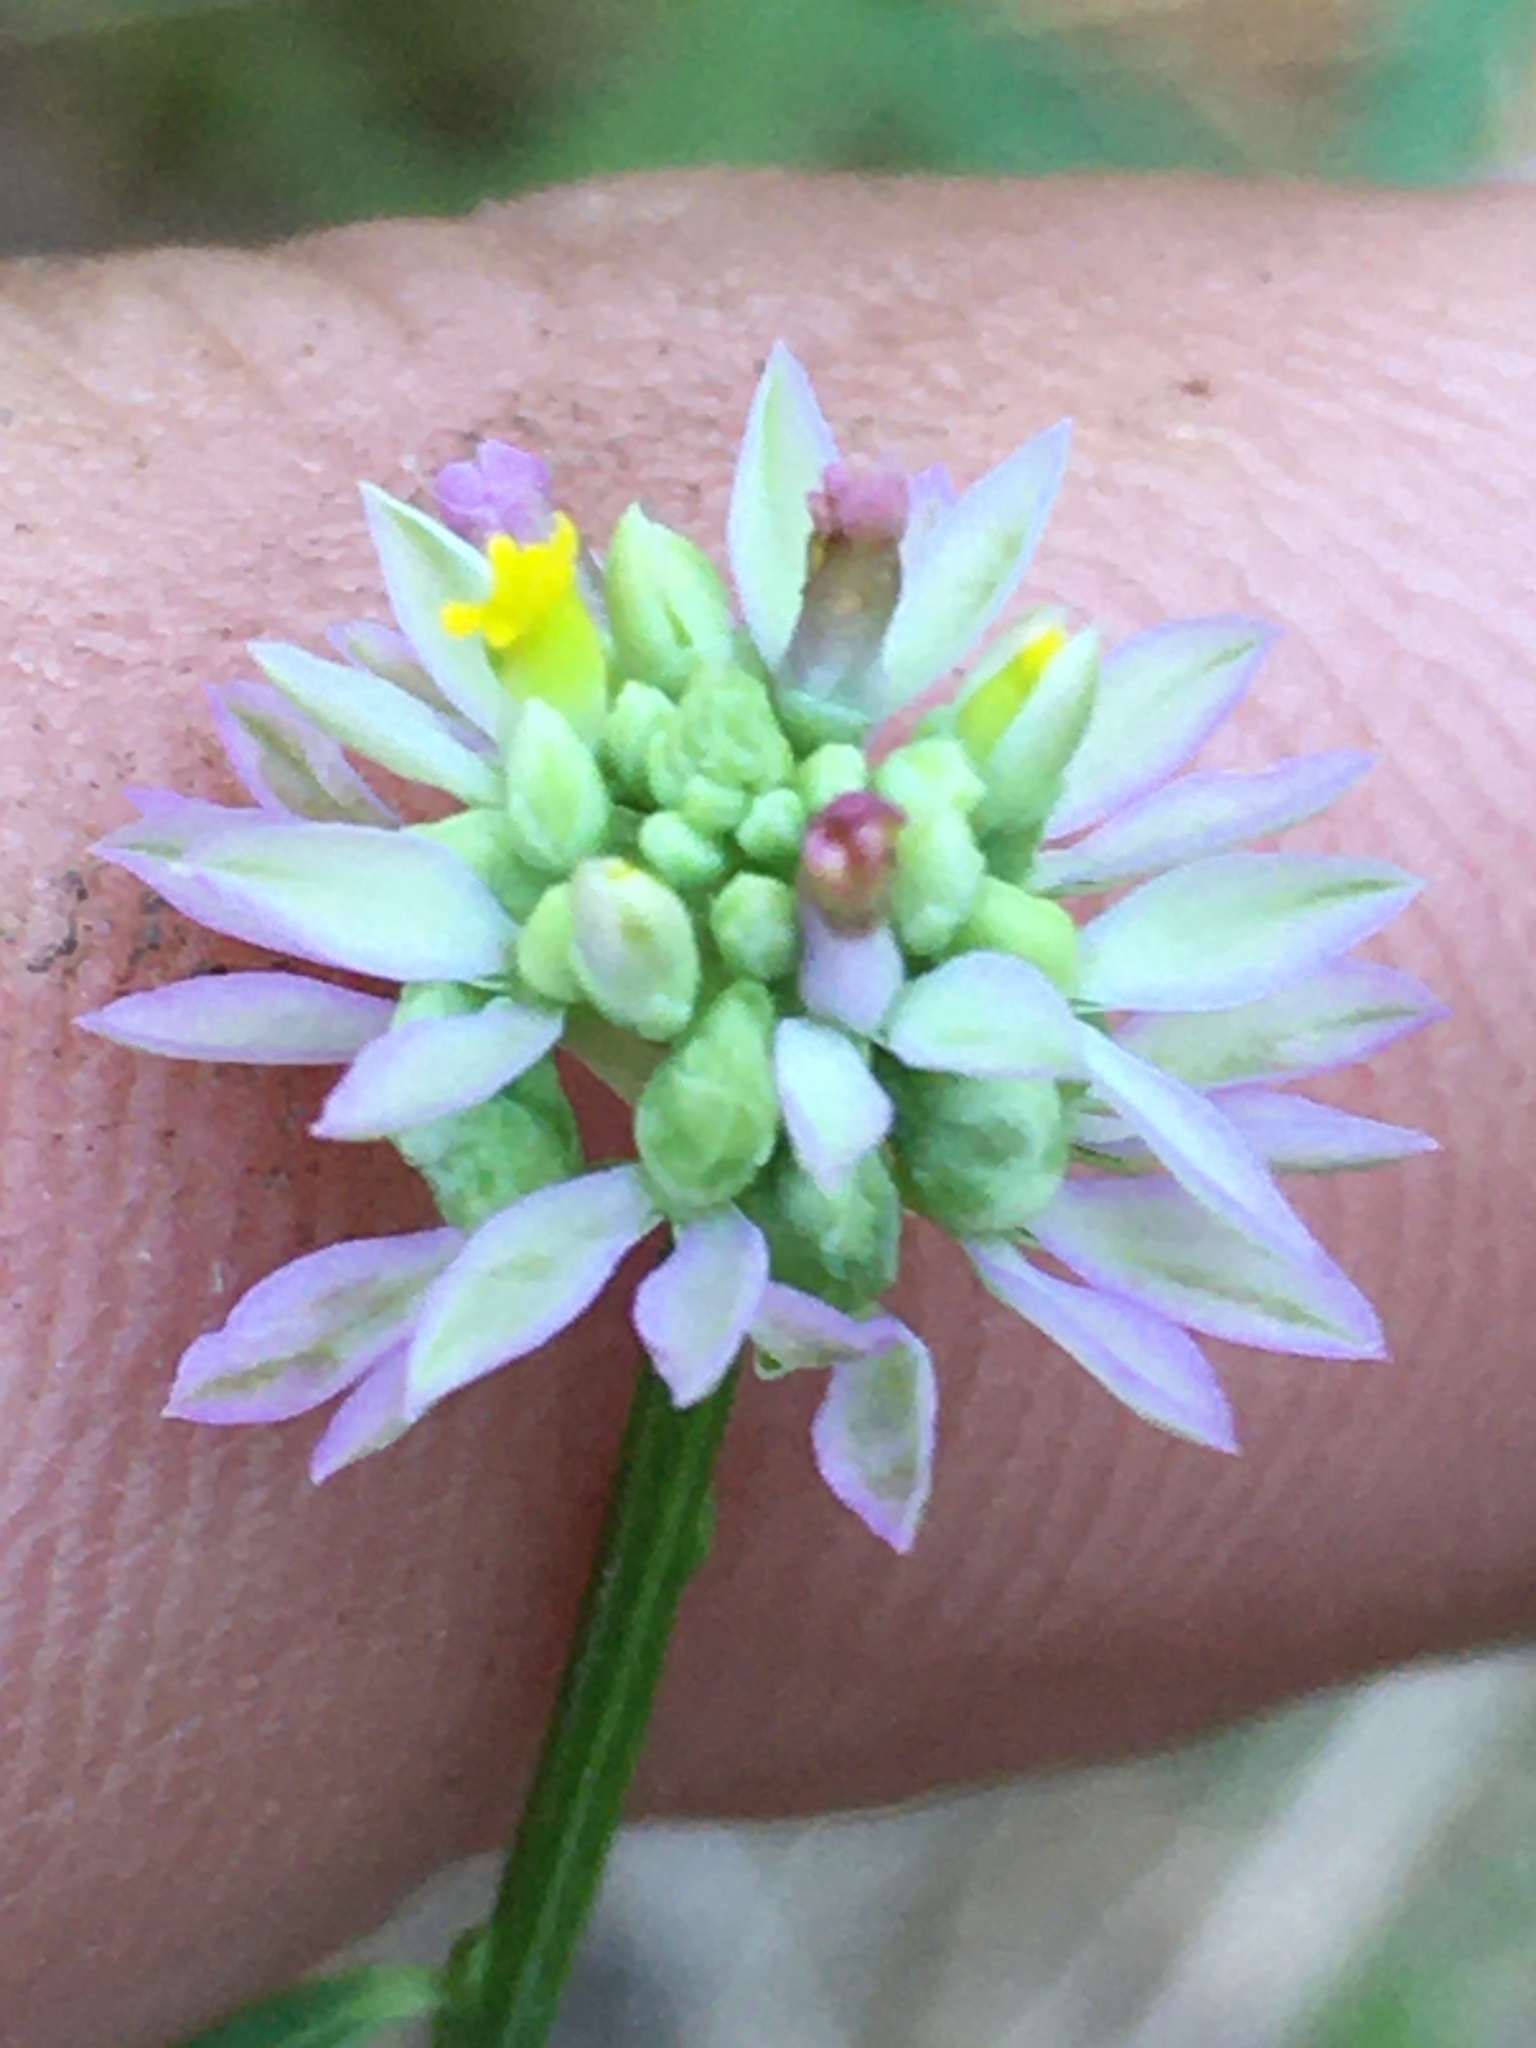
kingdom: Plantae
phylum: Tracheophyta
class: Magnoliopsida
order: Fabales
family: Polygalaceae
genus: Polygala
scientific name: Polygala curtissii
